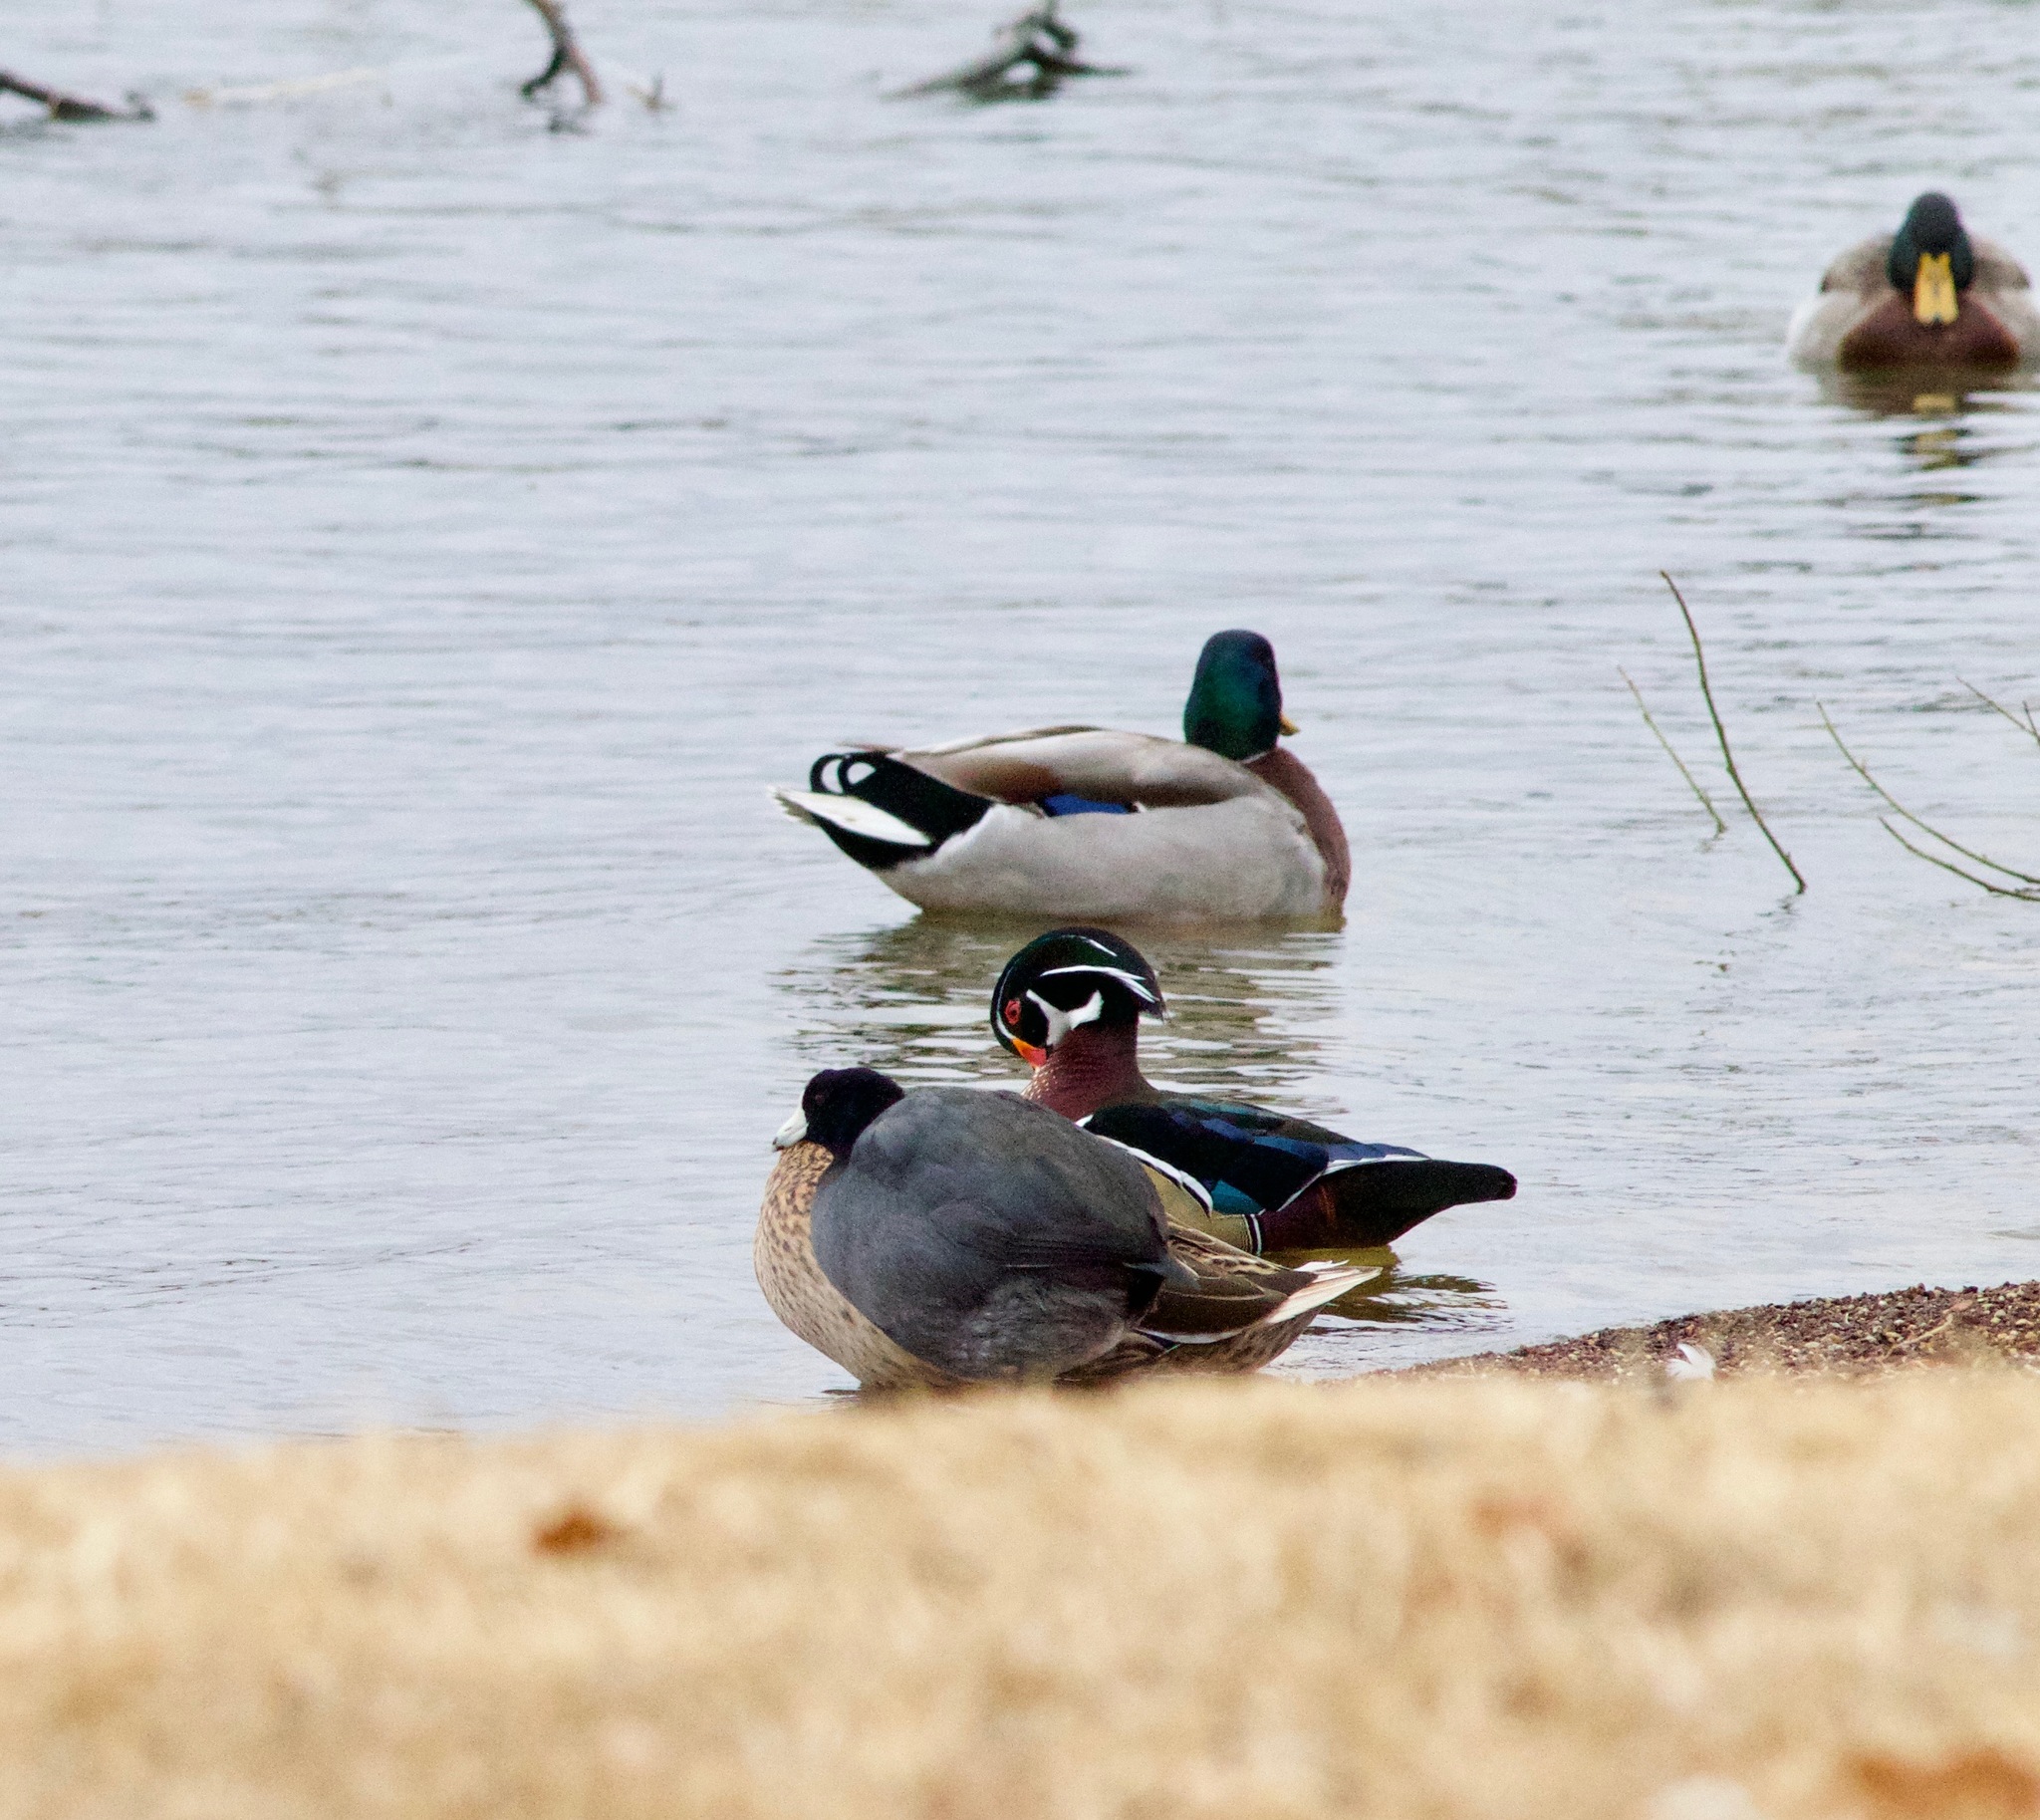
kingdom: Animalia
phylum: Chordata
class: Aves
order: Anseriformes
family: Anatidae
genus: Aix
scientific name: Aix sponsa
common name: Wood duck
